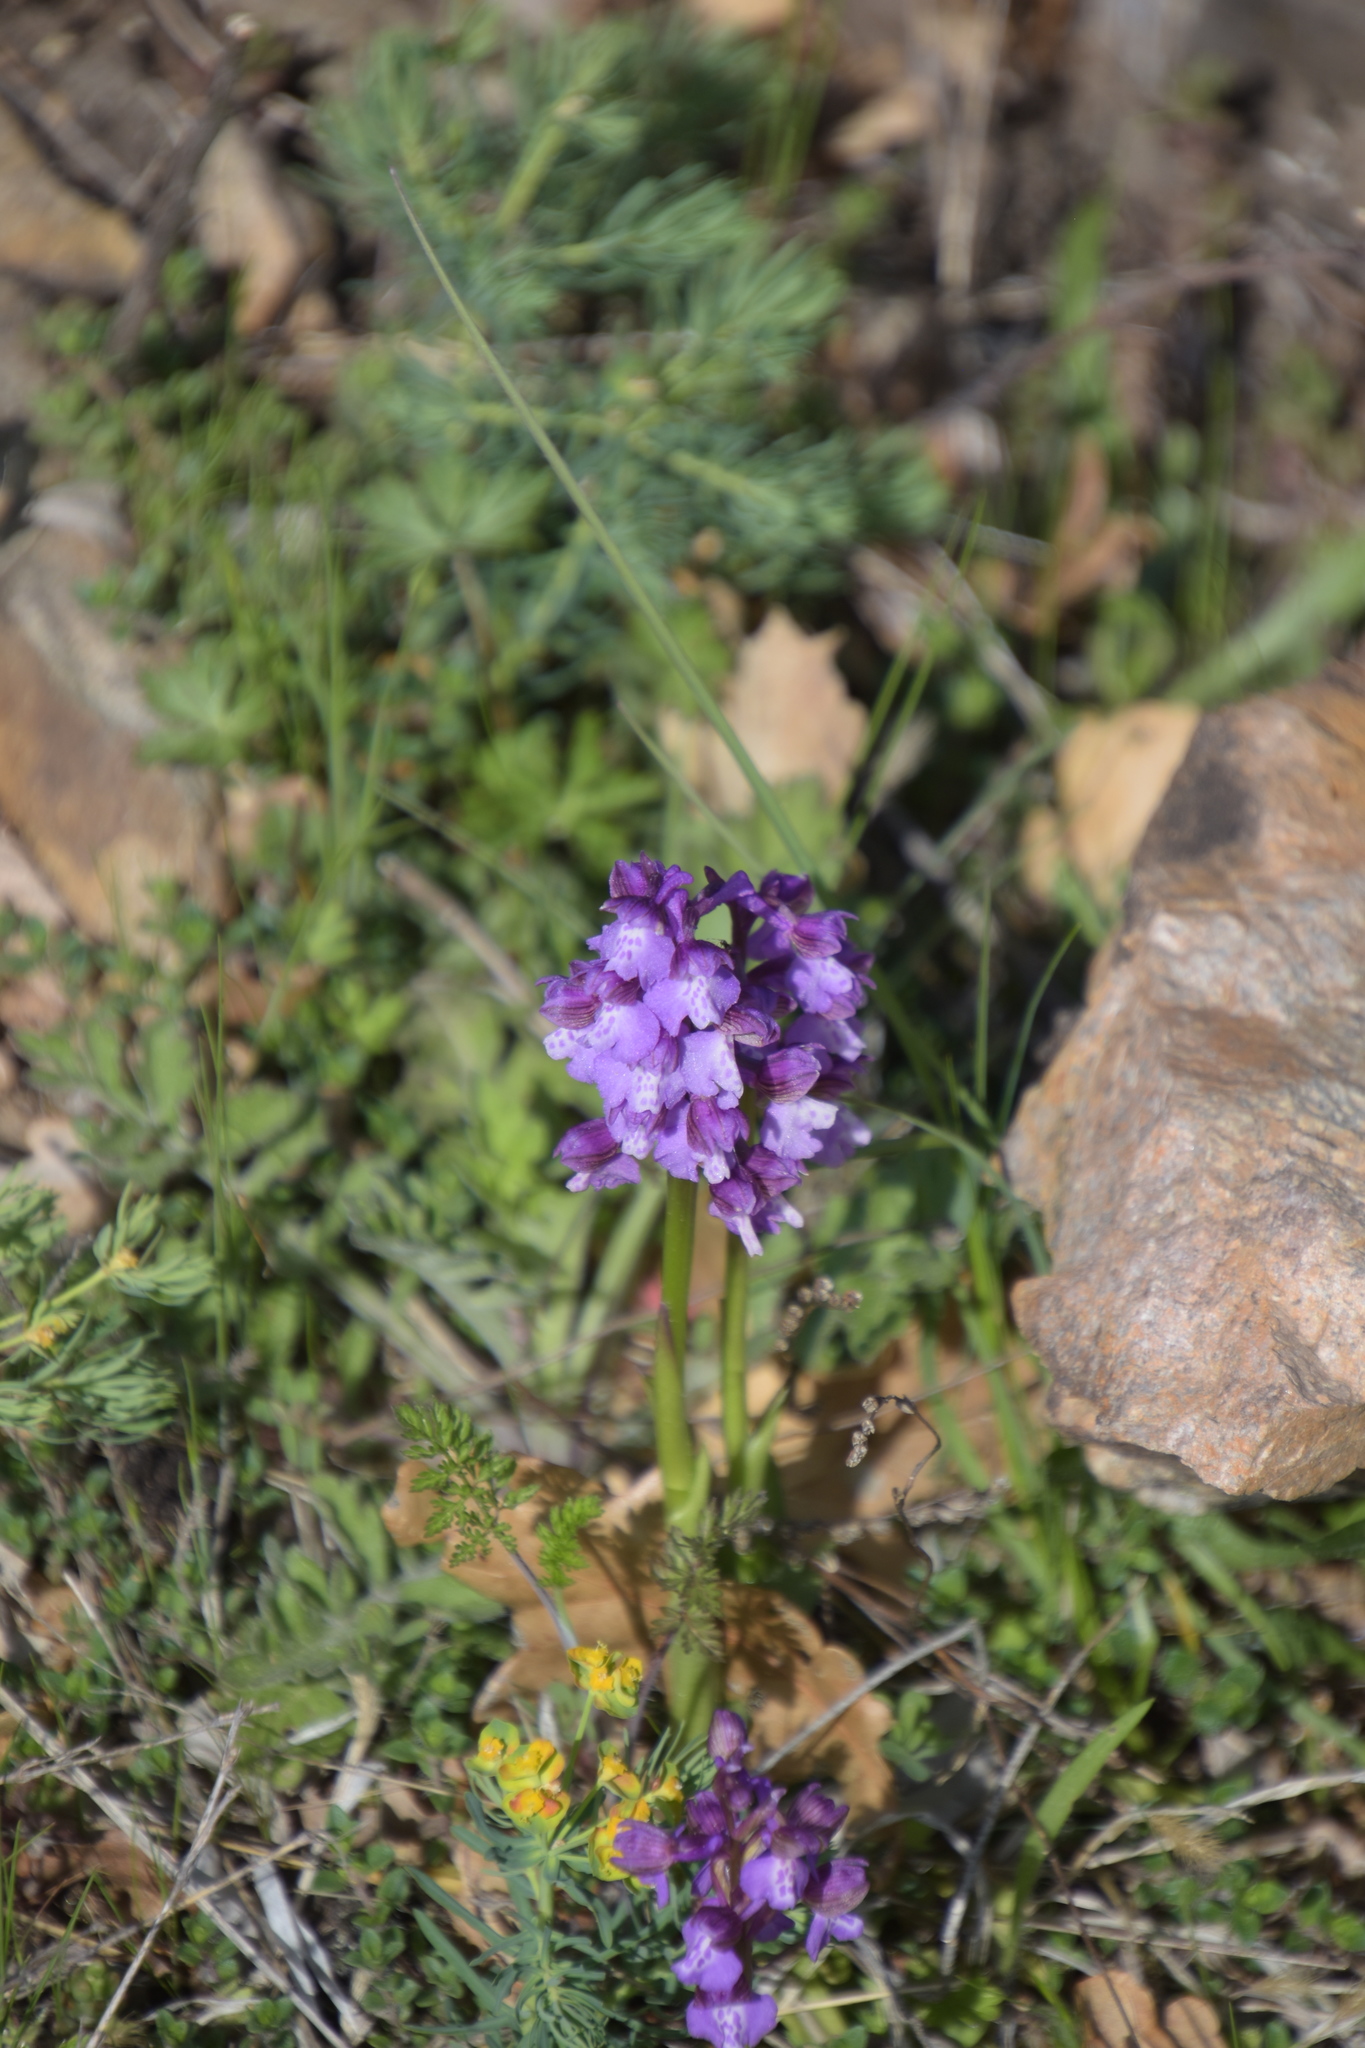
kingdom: Plantae
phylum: Tracheophyta
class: Liliopsida
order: Asparagales
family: Orchidaceae
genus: Anacamptis
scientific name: Anacamptis morio
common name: Green-winged orchid
